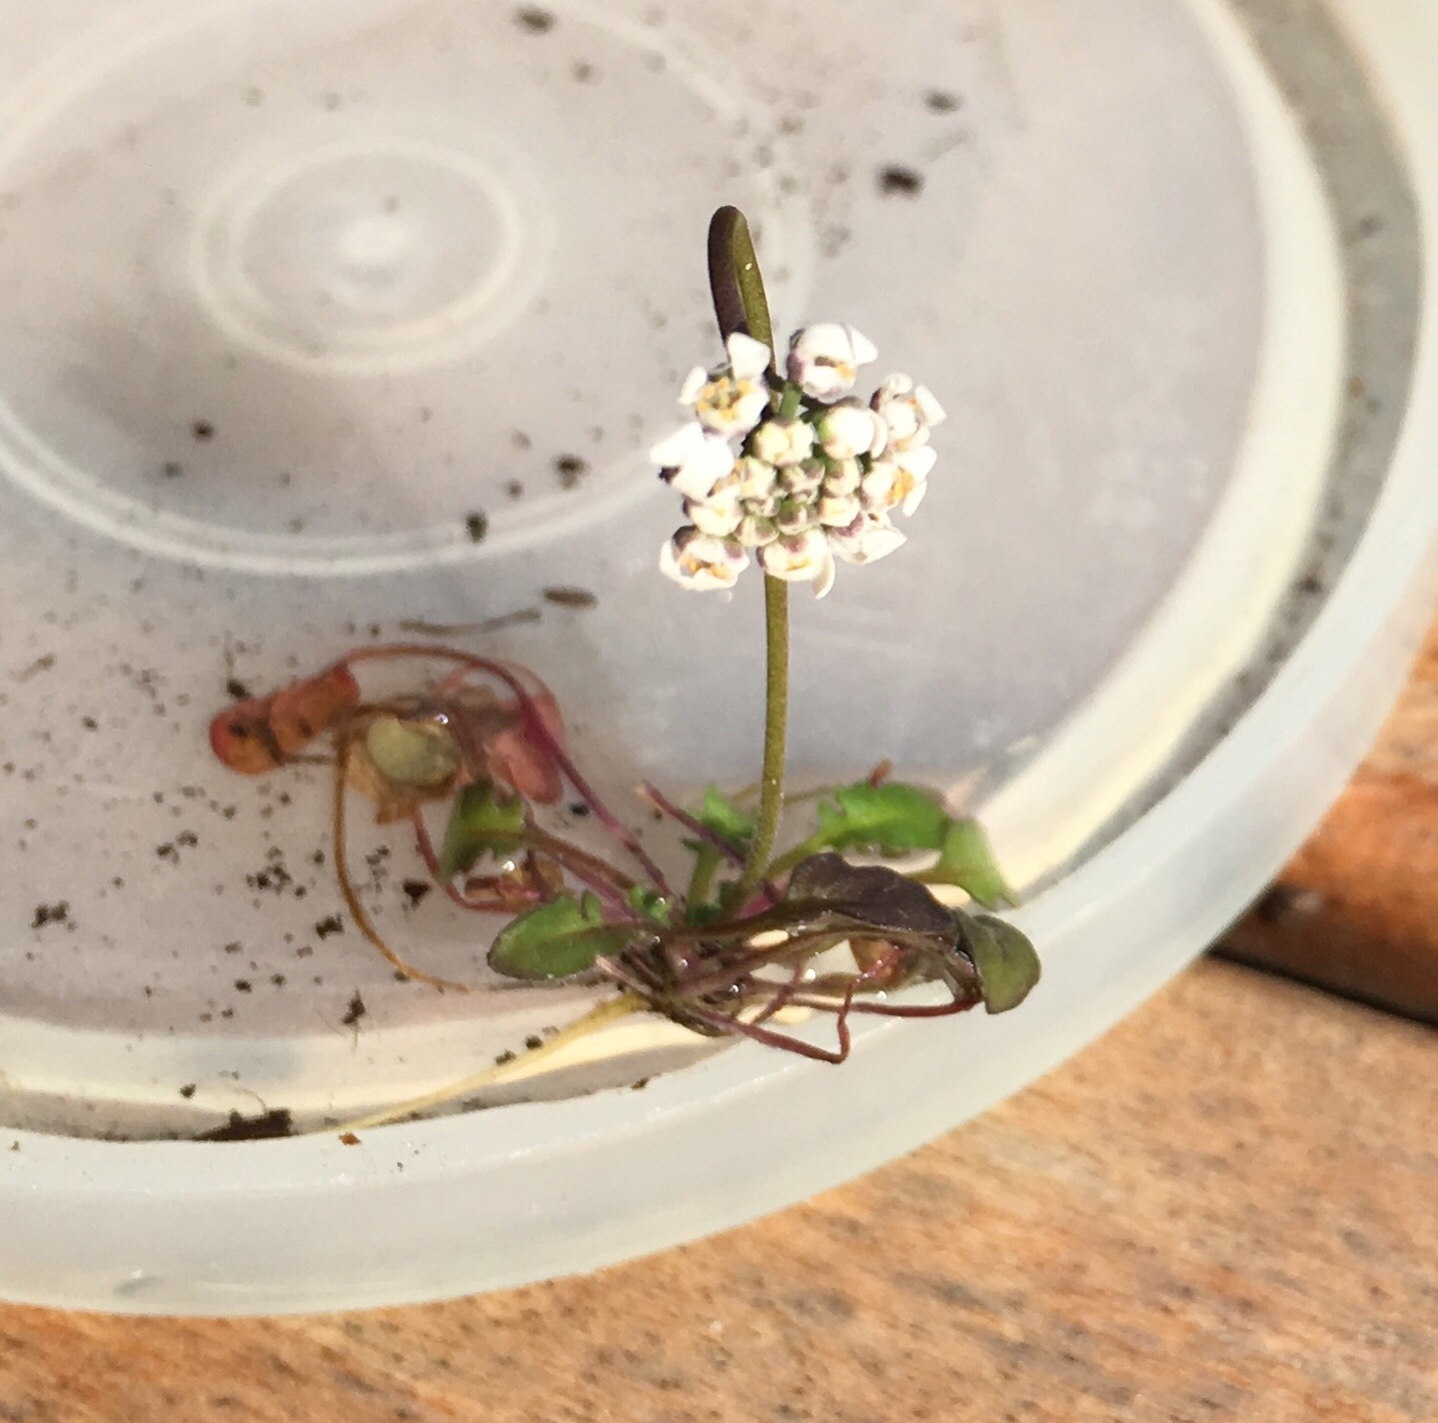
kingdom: Plantae
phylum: Tracheophyta
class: Magnoliopsida
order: Brassicales
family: Brassicaceae
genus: Teesdalia
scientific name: Teesdalia nudicaulis
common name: Shepherd's cress
